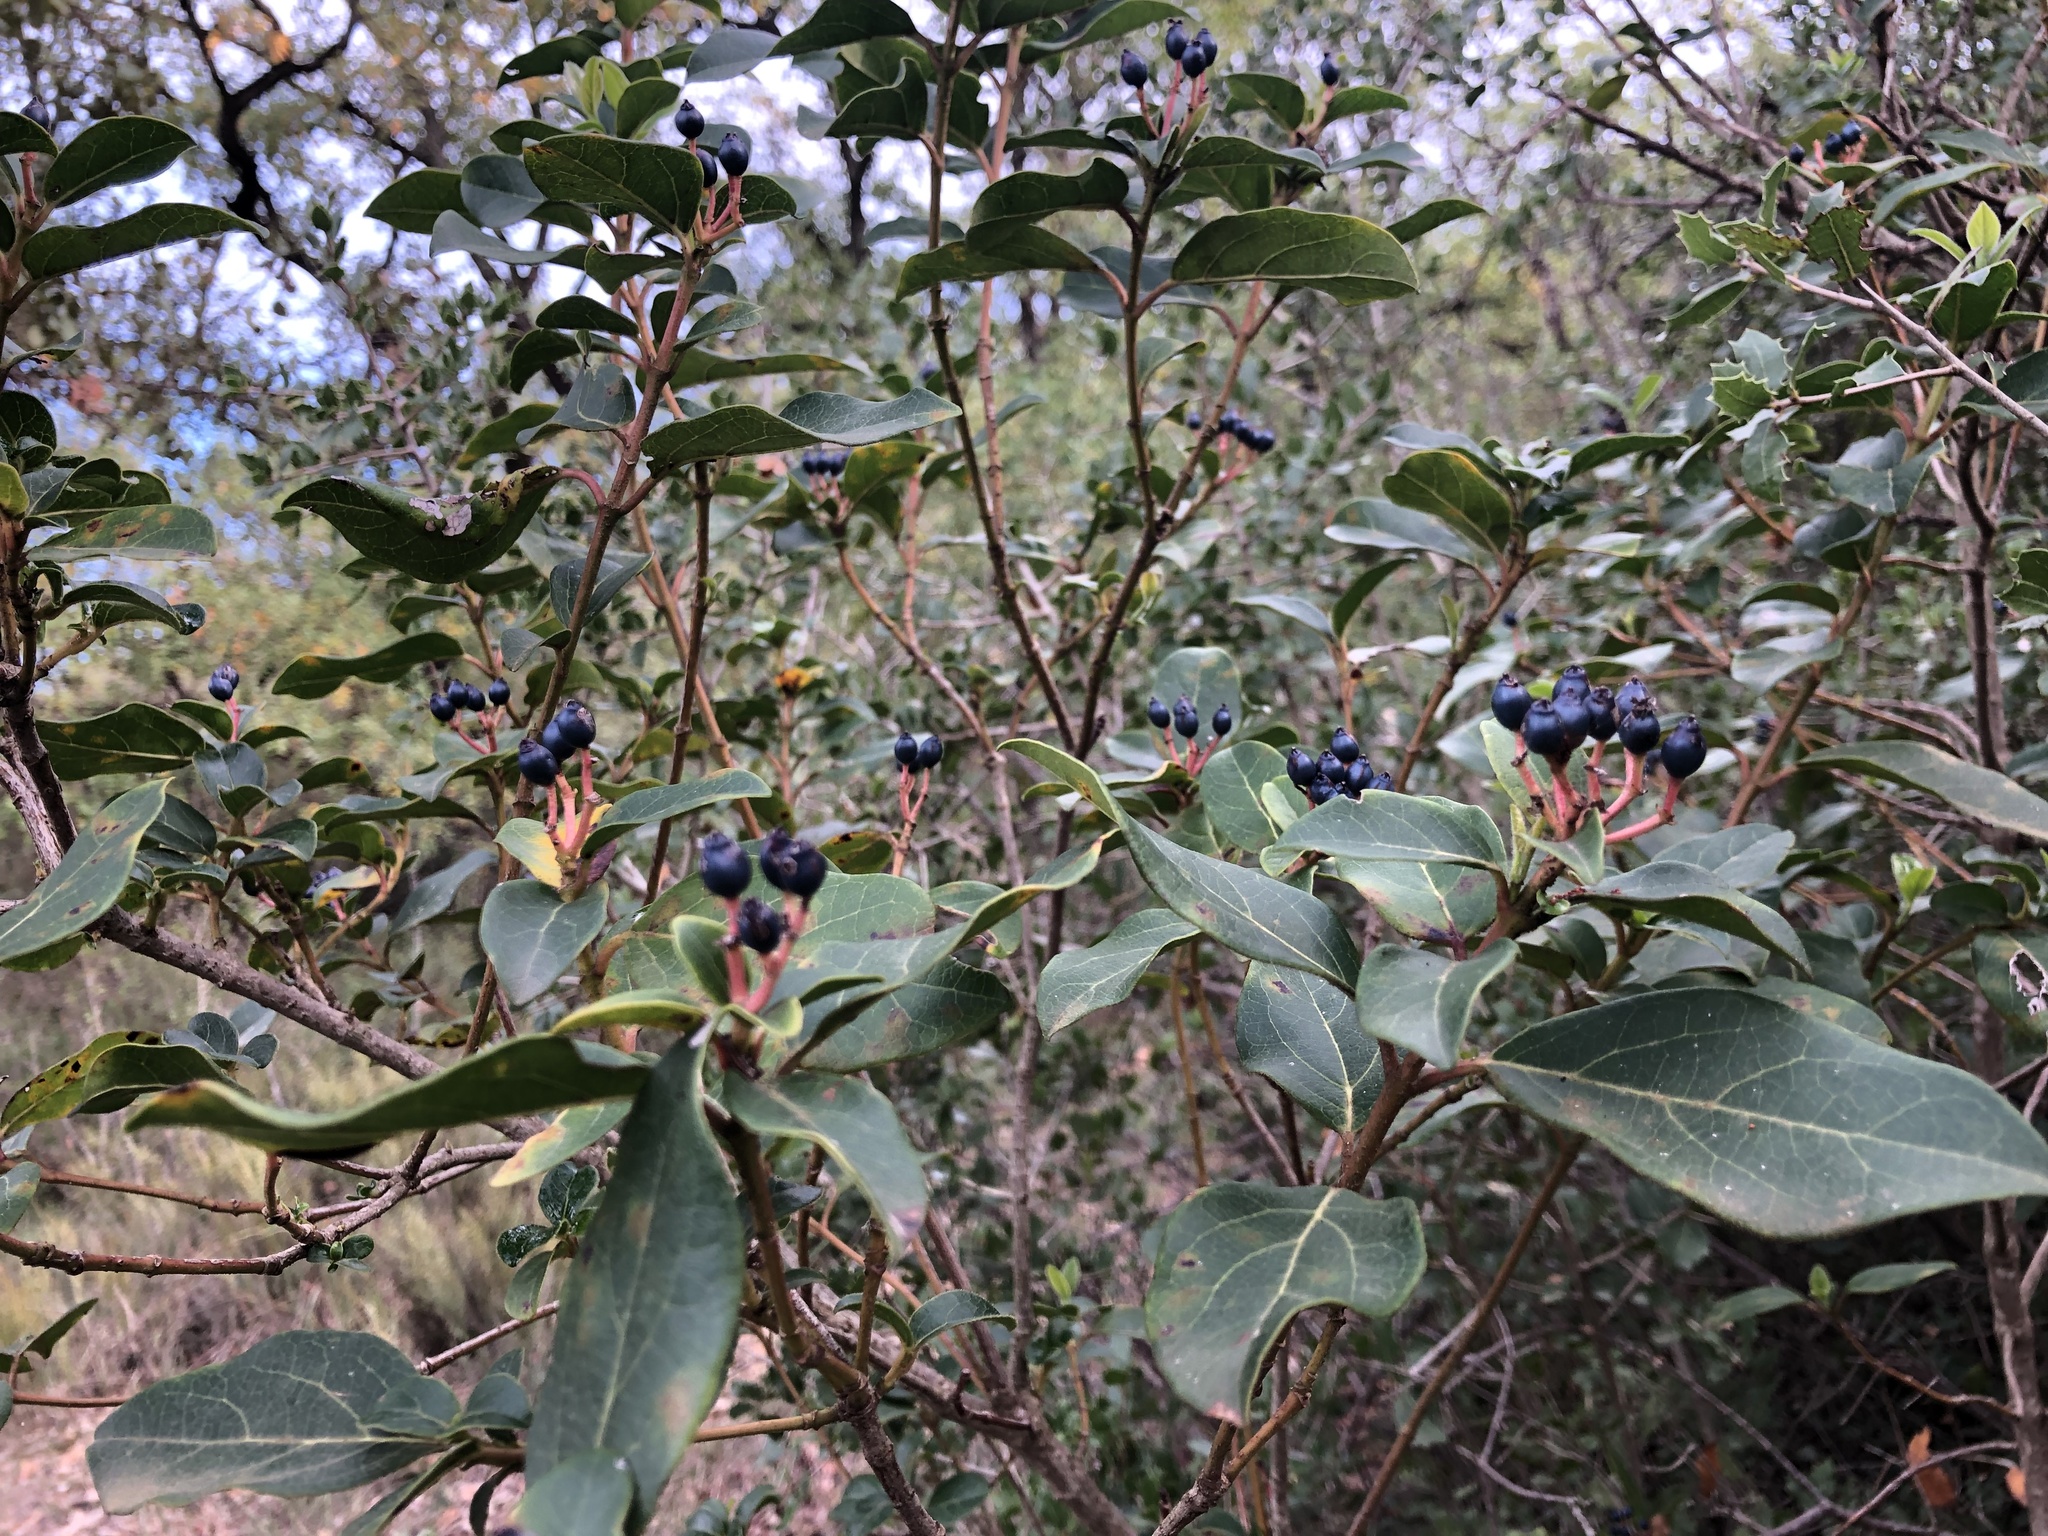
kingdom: Plantae
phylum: Tracheophyta
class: Magnoliopsida
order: Dipsacales
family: Viburnaceae
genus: Viburnum
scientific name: Viburnum tinus
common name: Laurustinus
